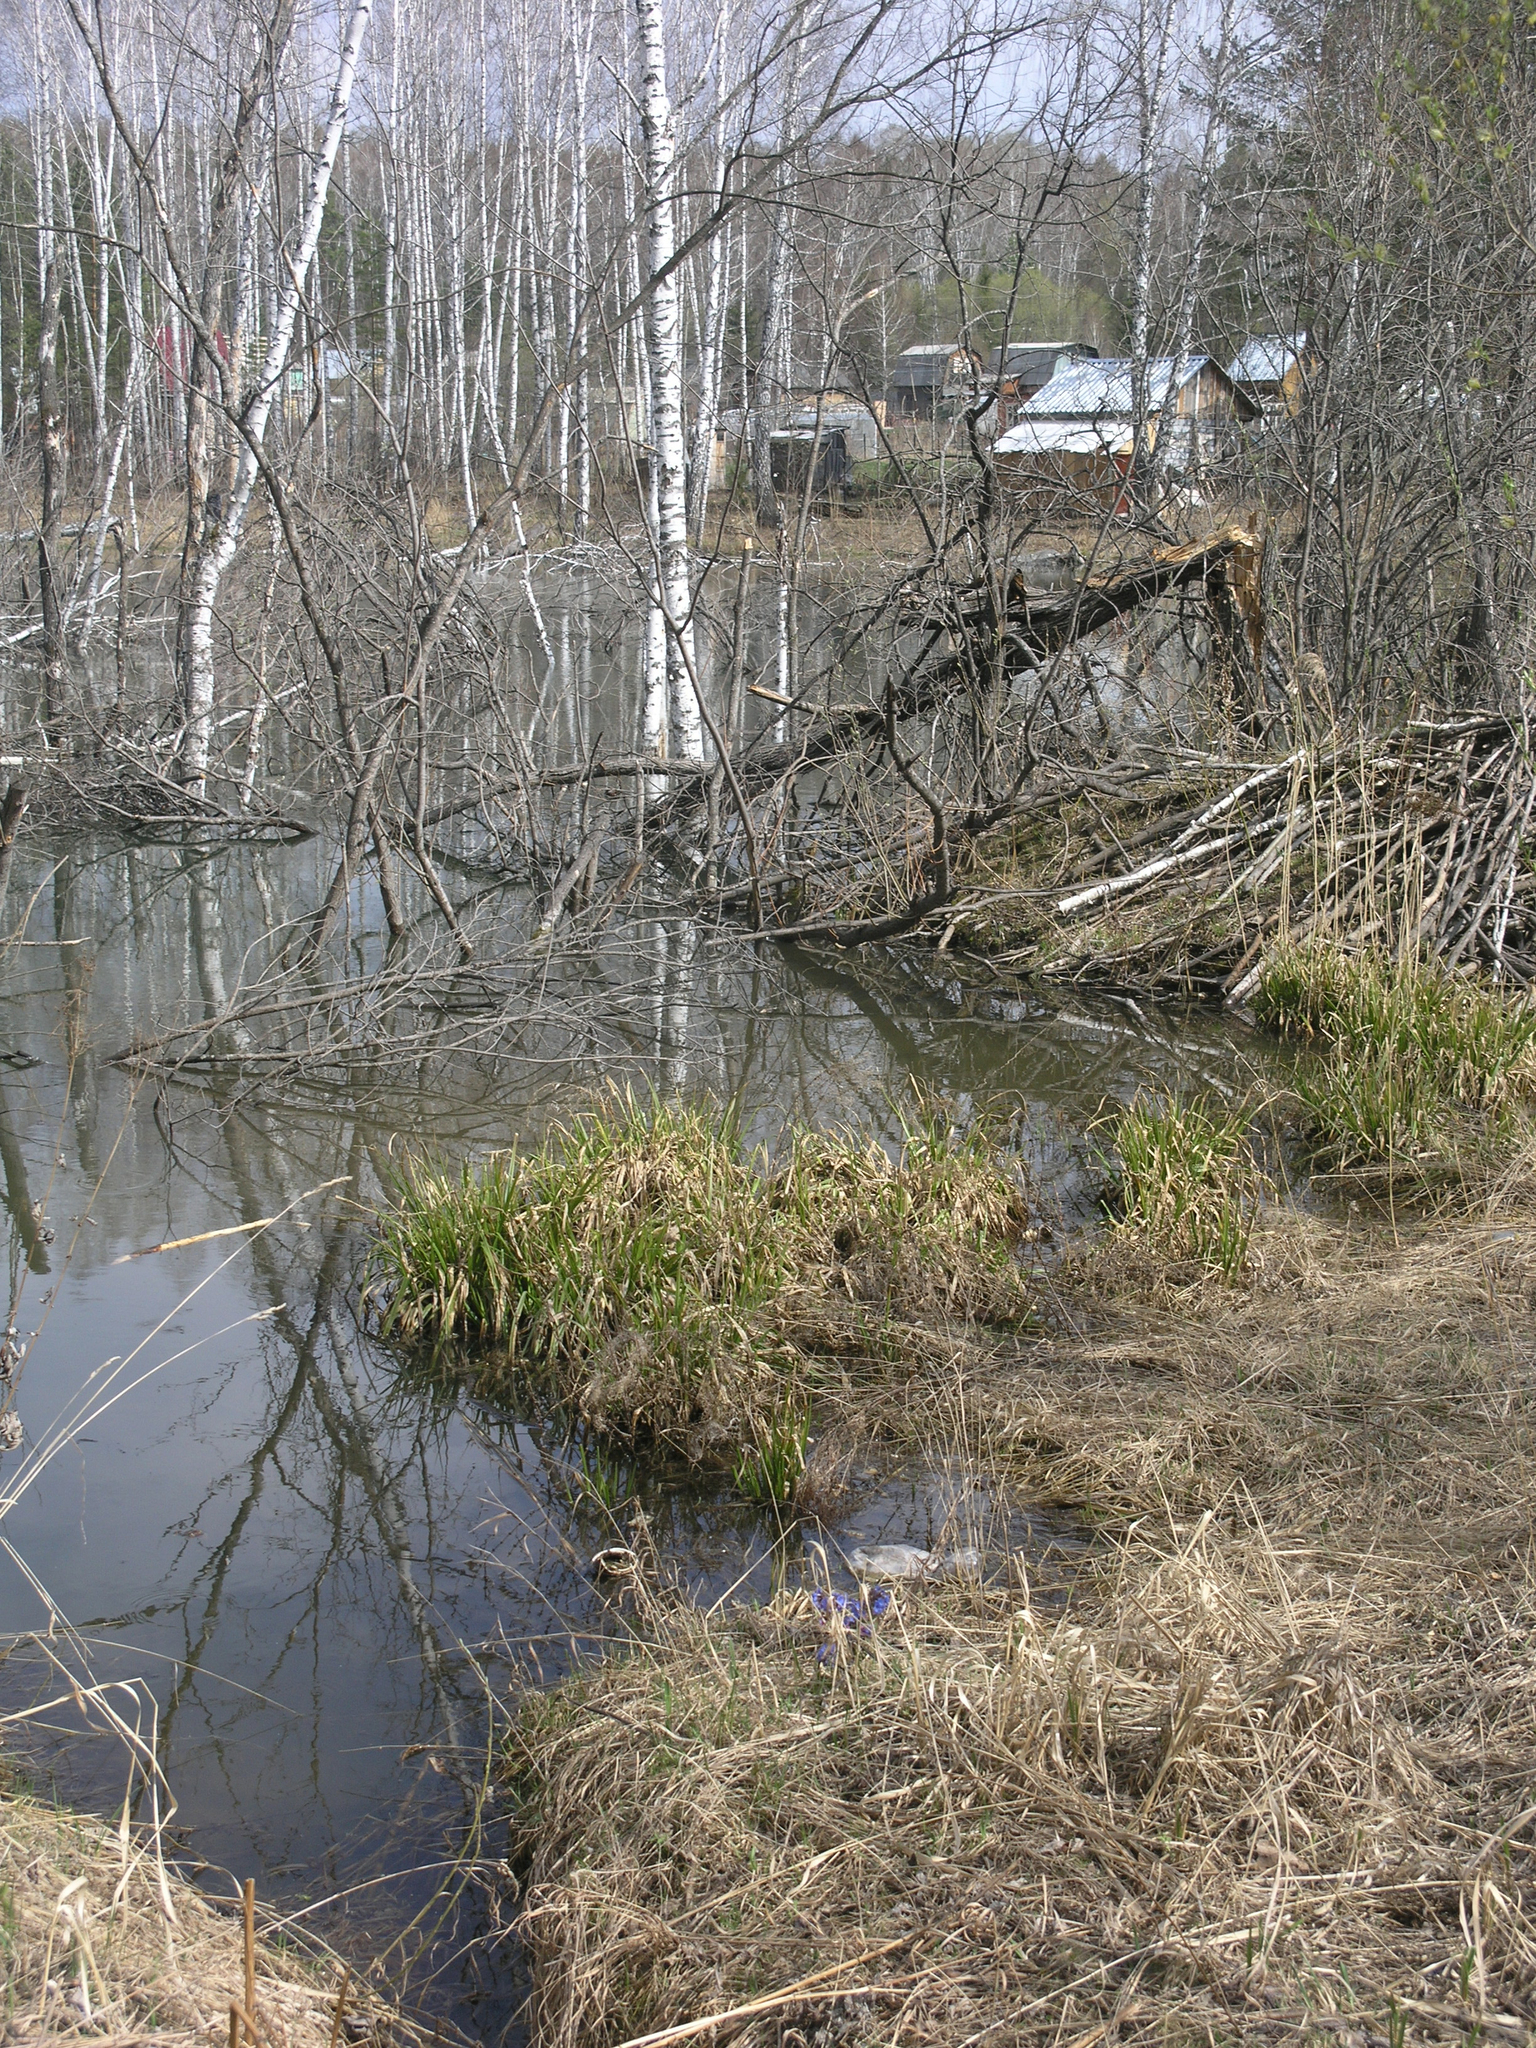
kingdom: Animalia
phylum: Chordata
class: Mammalia
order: Rodentia
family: Castoridae
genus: Castor
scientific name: Castor fiber
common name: Eurasian beaver
